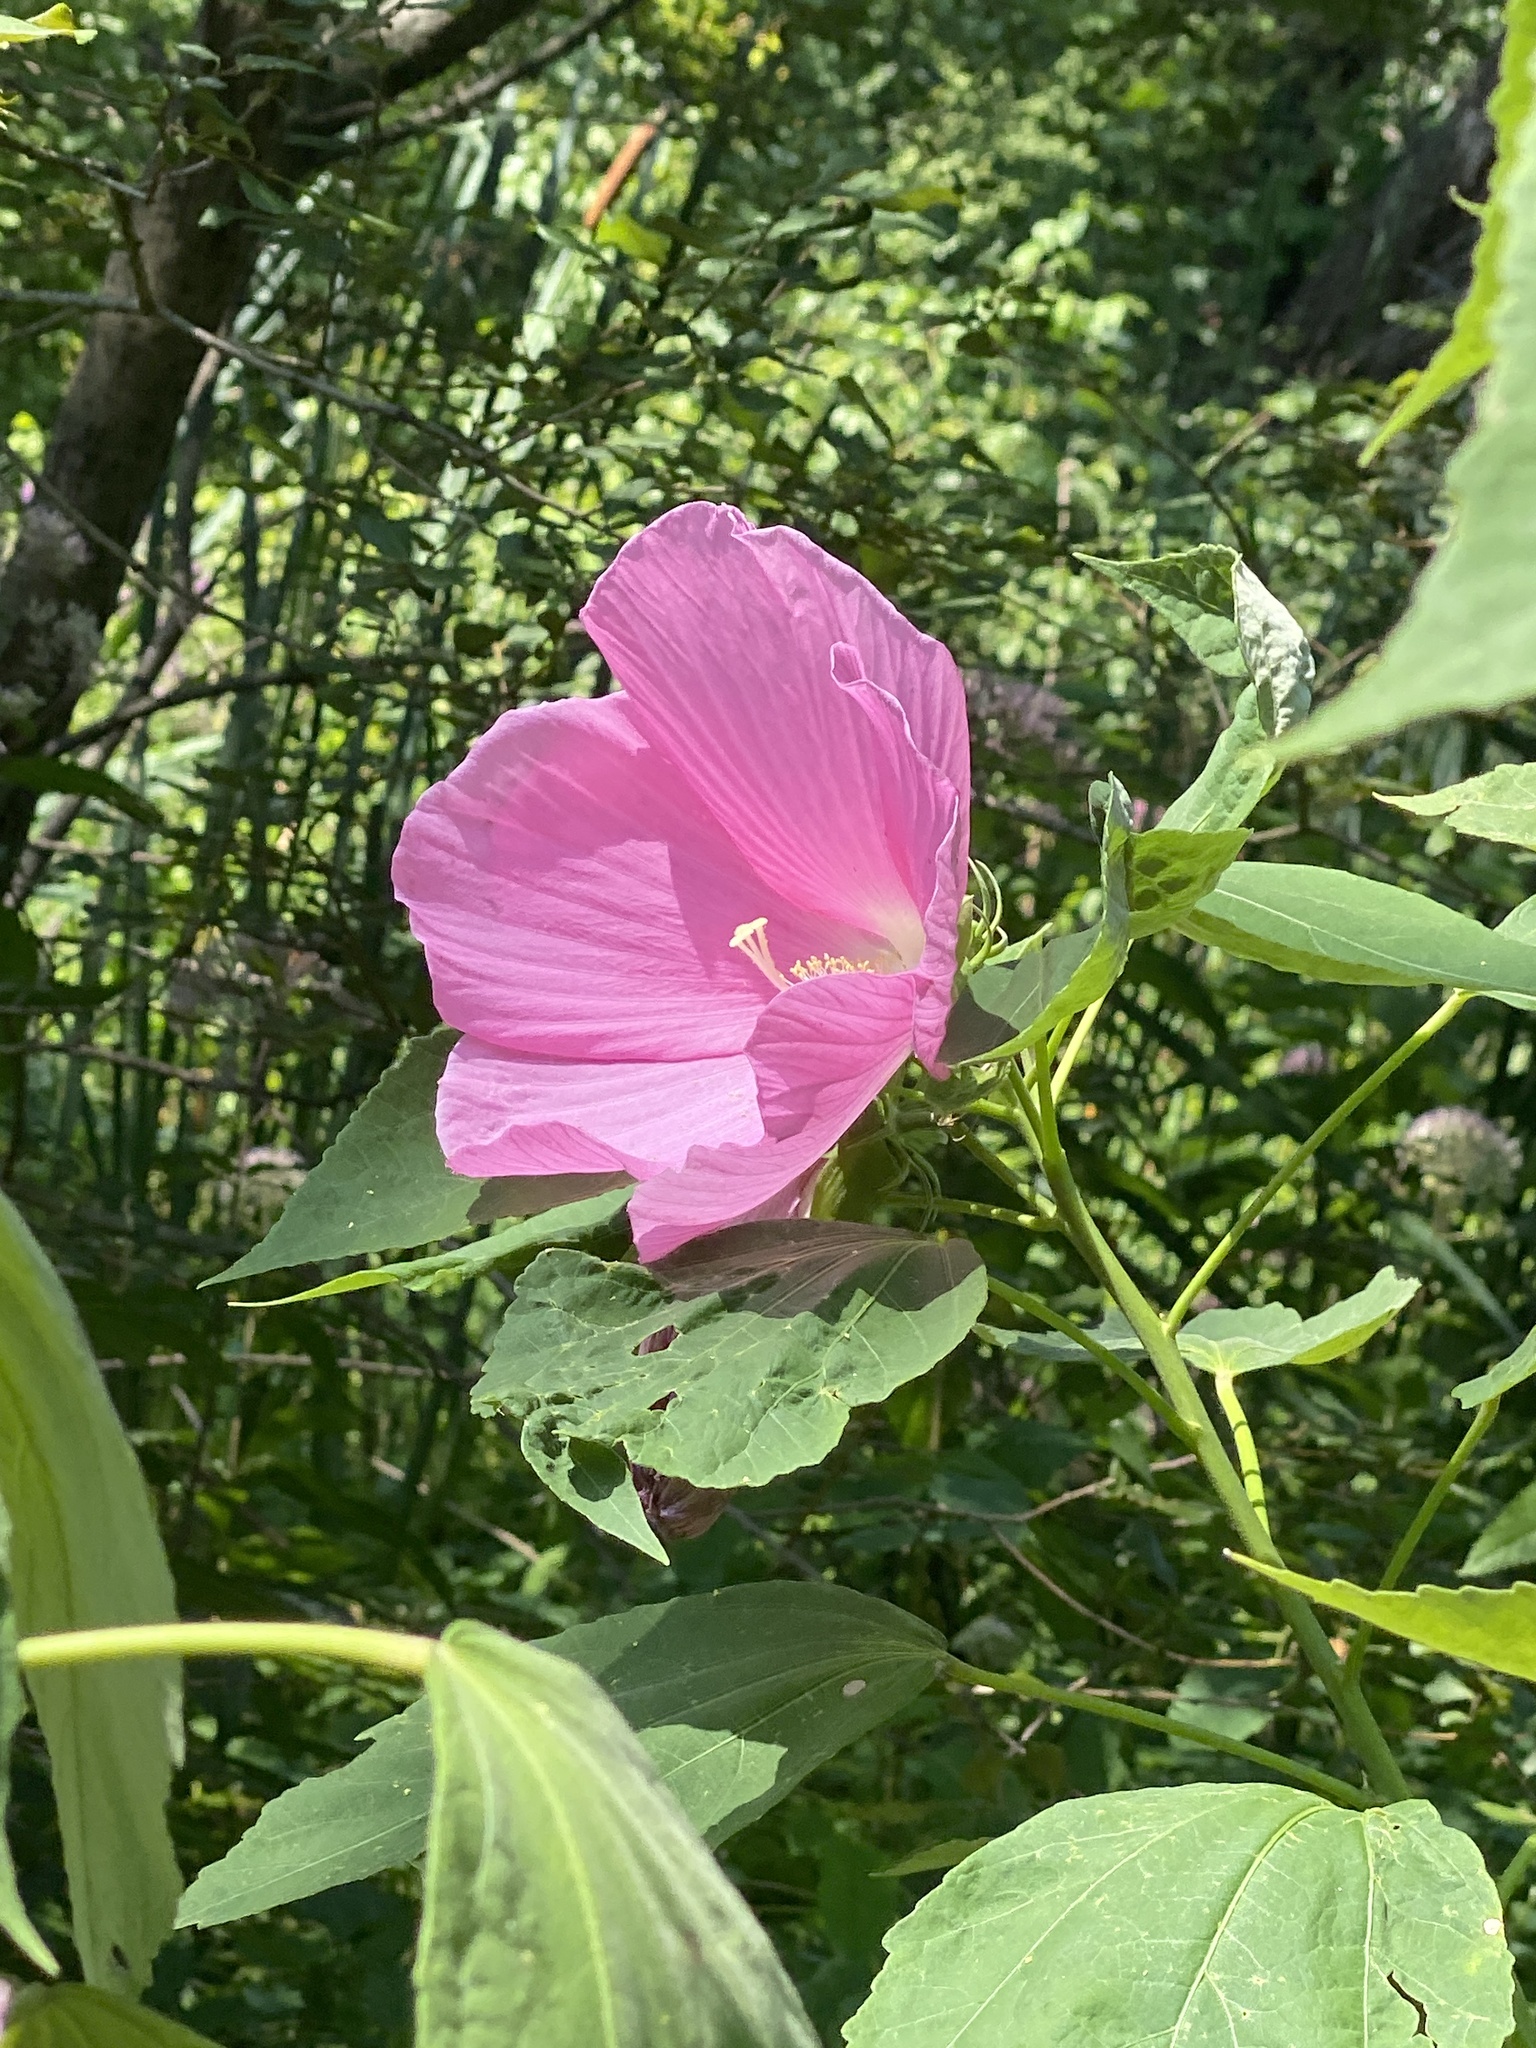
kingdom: Plantae
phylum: Tracheophyta
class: Magnoliopsida
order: Malvales
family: Malvaceae
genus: Hibiscus
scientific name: Hibiscus moscheutos
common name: Common rose-mallow
